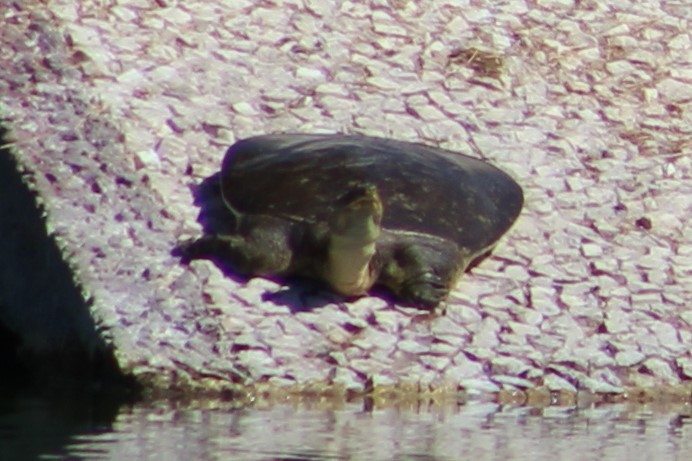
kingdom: Animalia
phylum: Chordata
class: Testudines
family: Trionychidae
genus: Apalone
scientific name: Apalone spinifera
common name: Spiny softshell turtle
